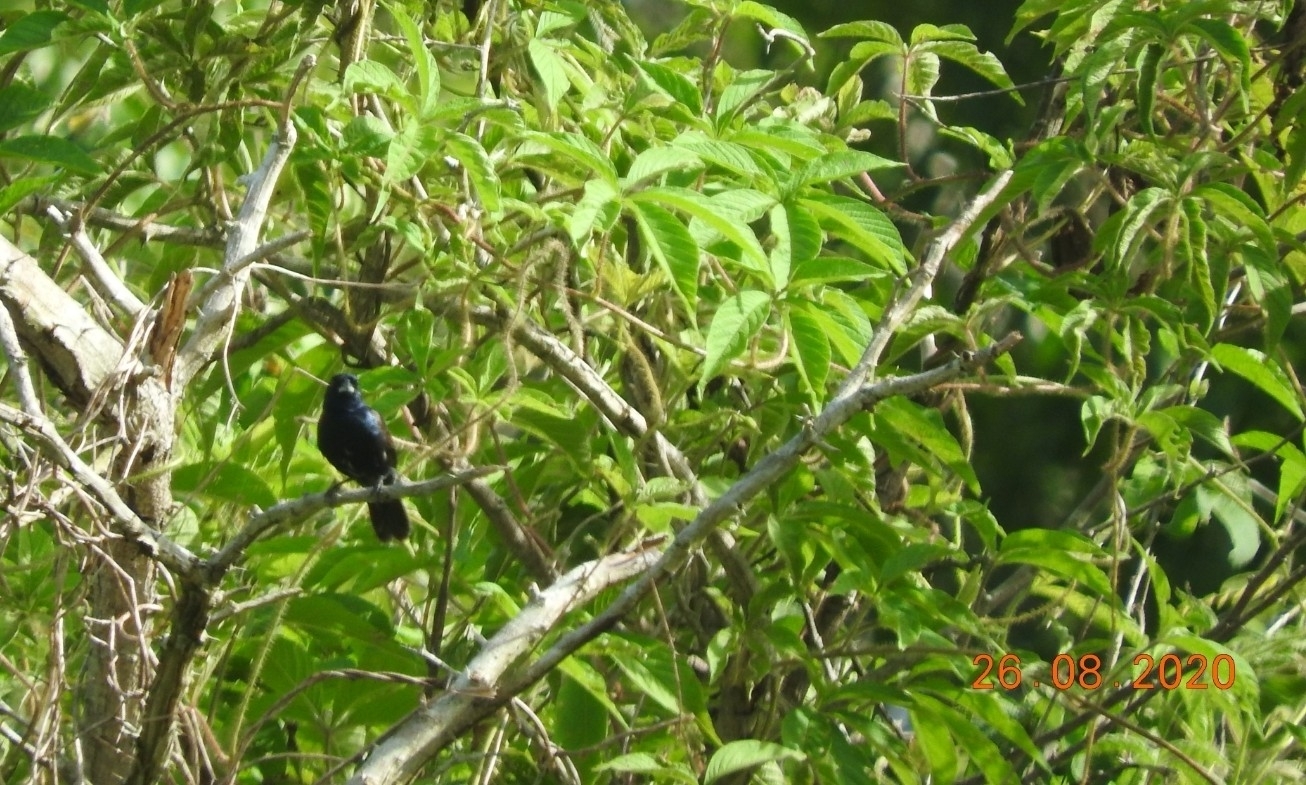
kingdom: Animalia
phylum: Chordata
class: Aves
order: Passeriformes
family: Thraupidae
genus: Volatinia
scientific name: Volatinia jacarina
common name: Blue-black grassquit
